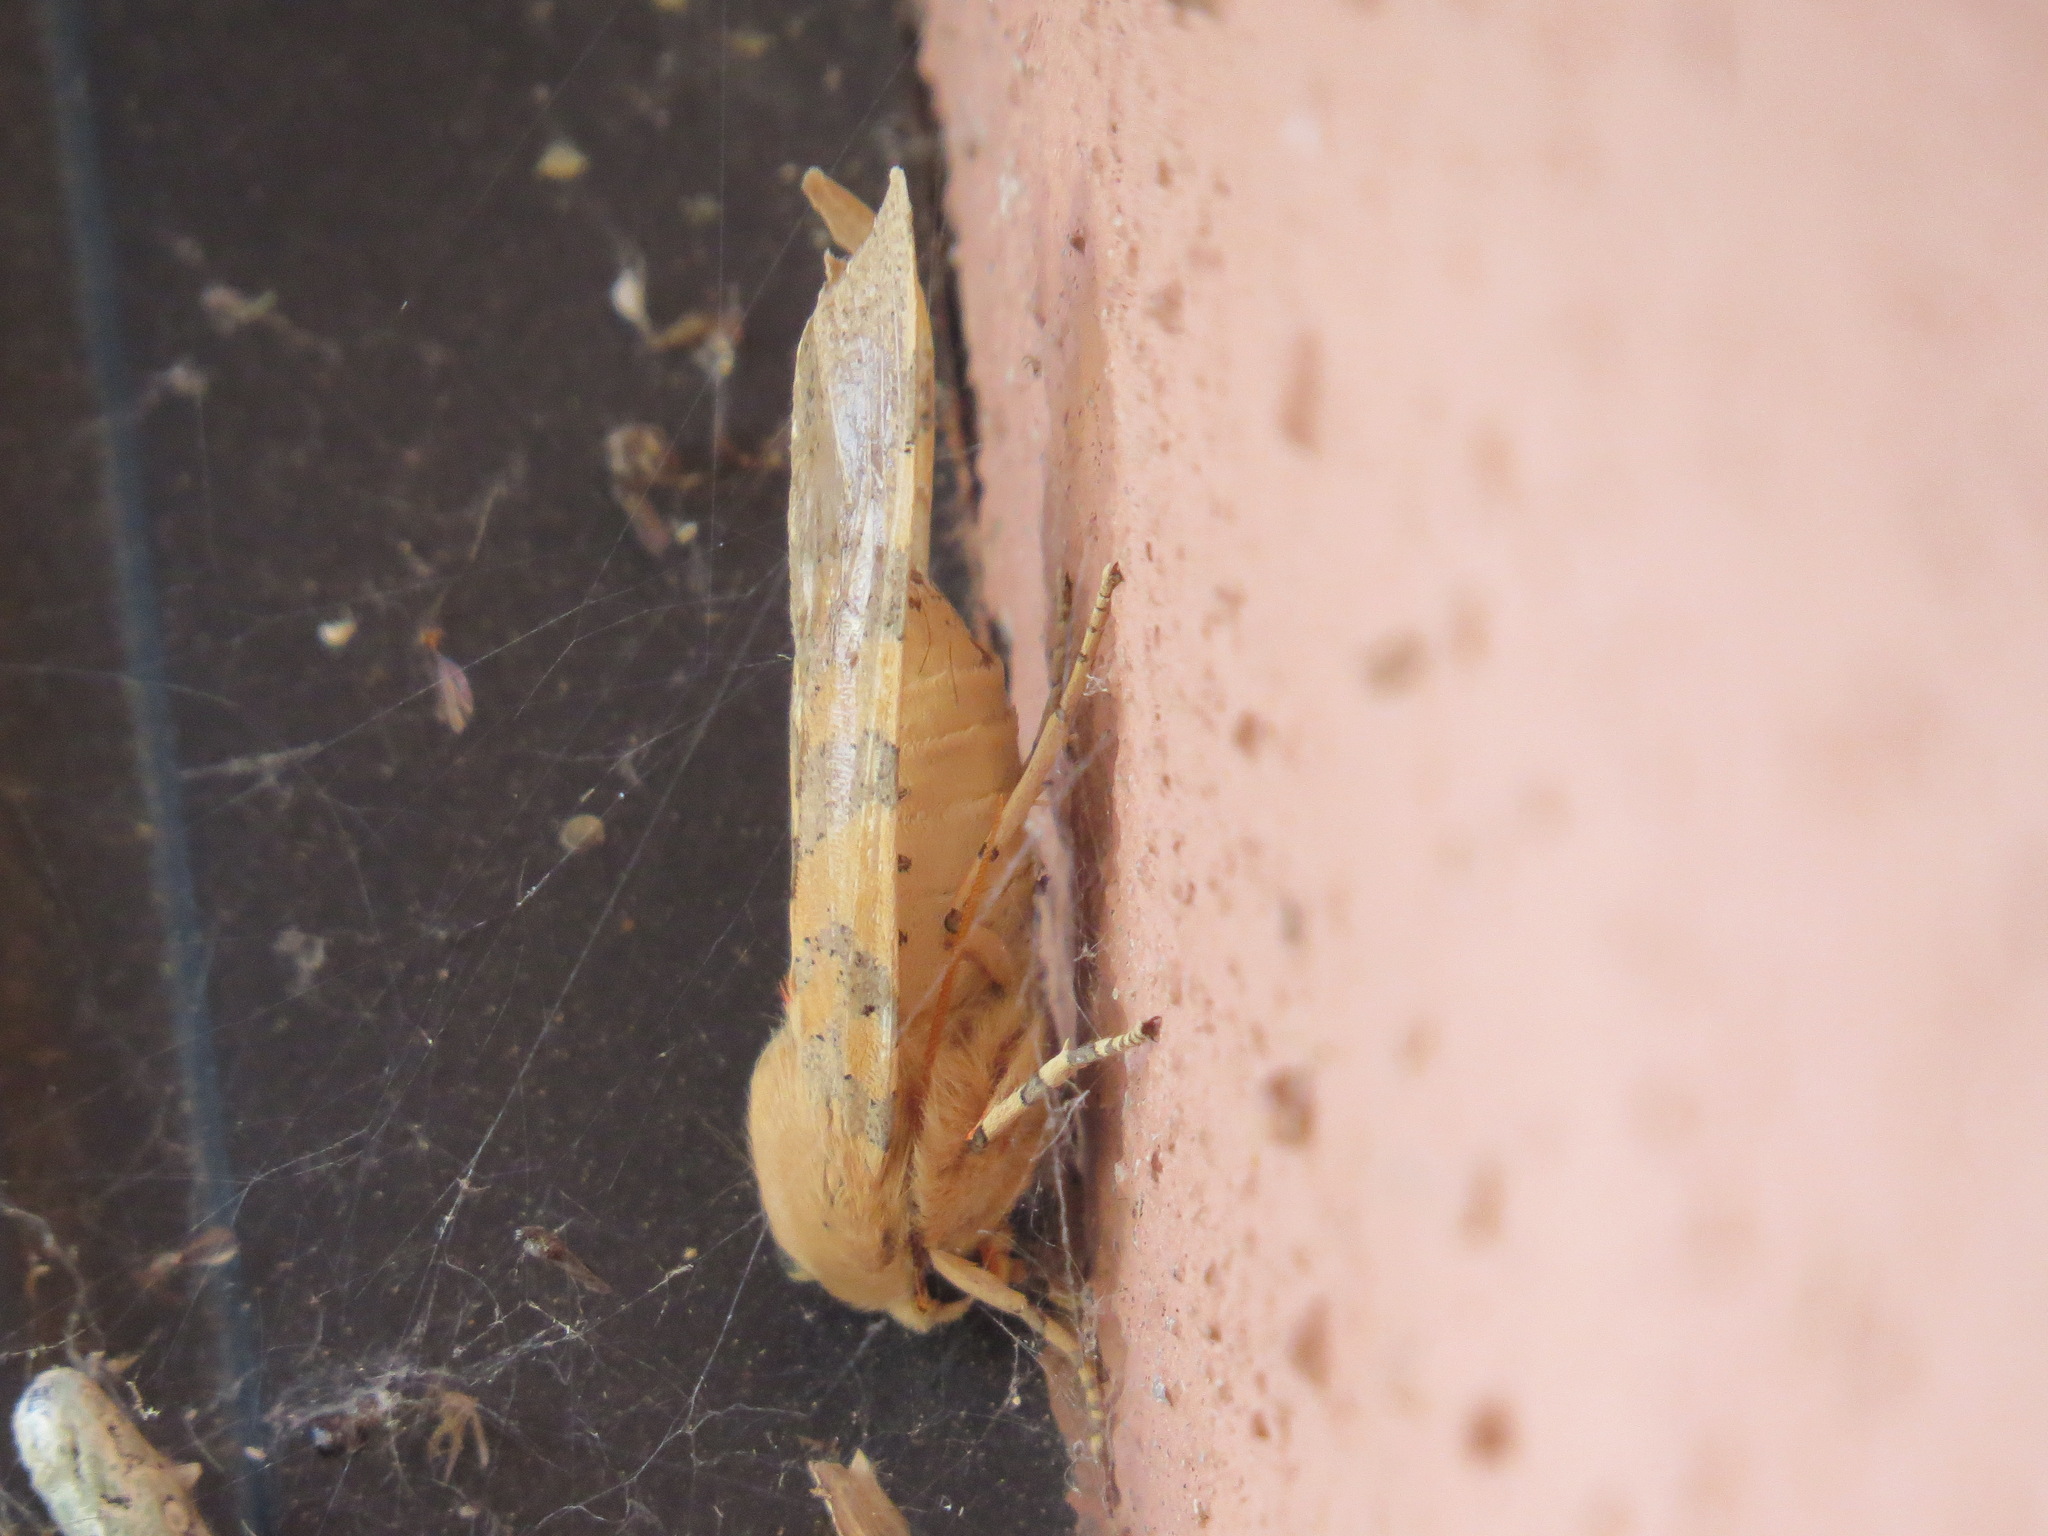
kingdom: Animalia
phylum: Arthropoda
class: Insecta
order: Lepidoptera
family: Erebidae
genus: Hemihyalea
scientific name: Hemihyalea edwardsii
